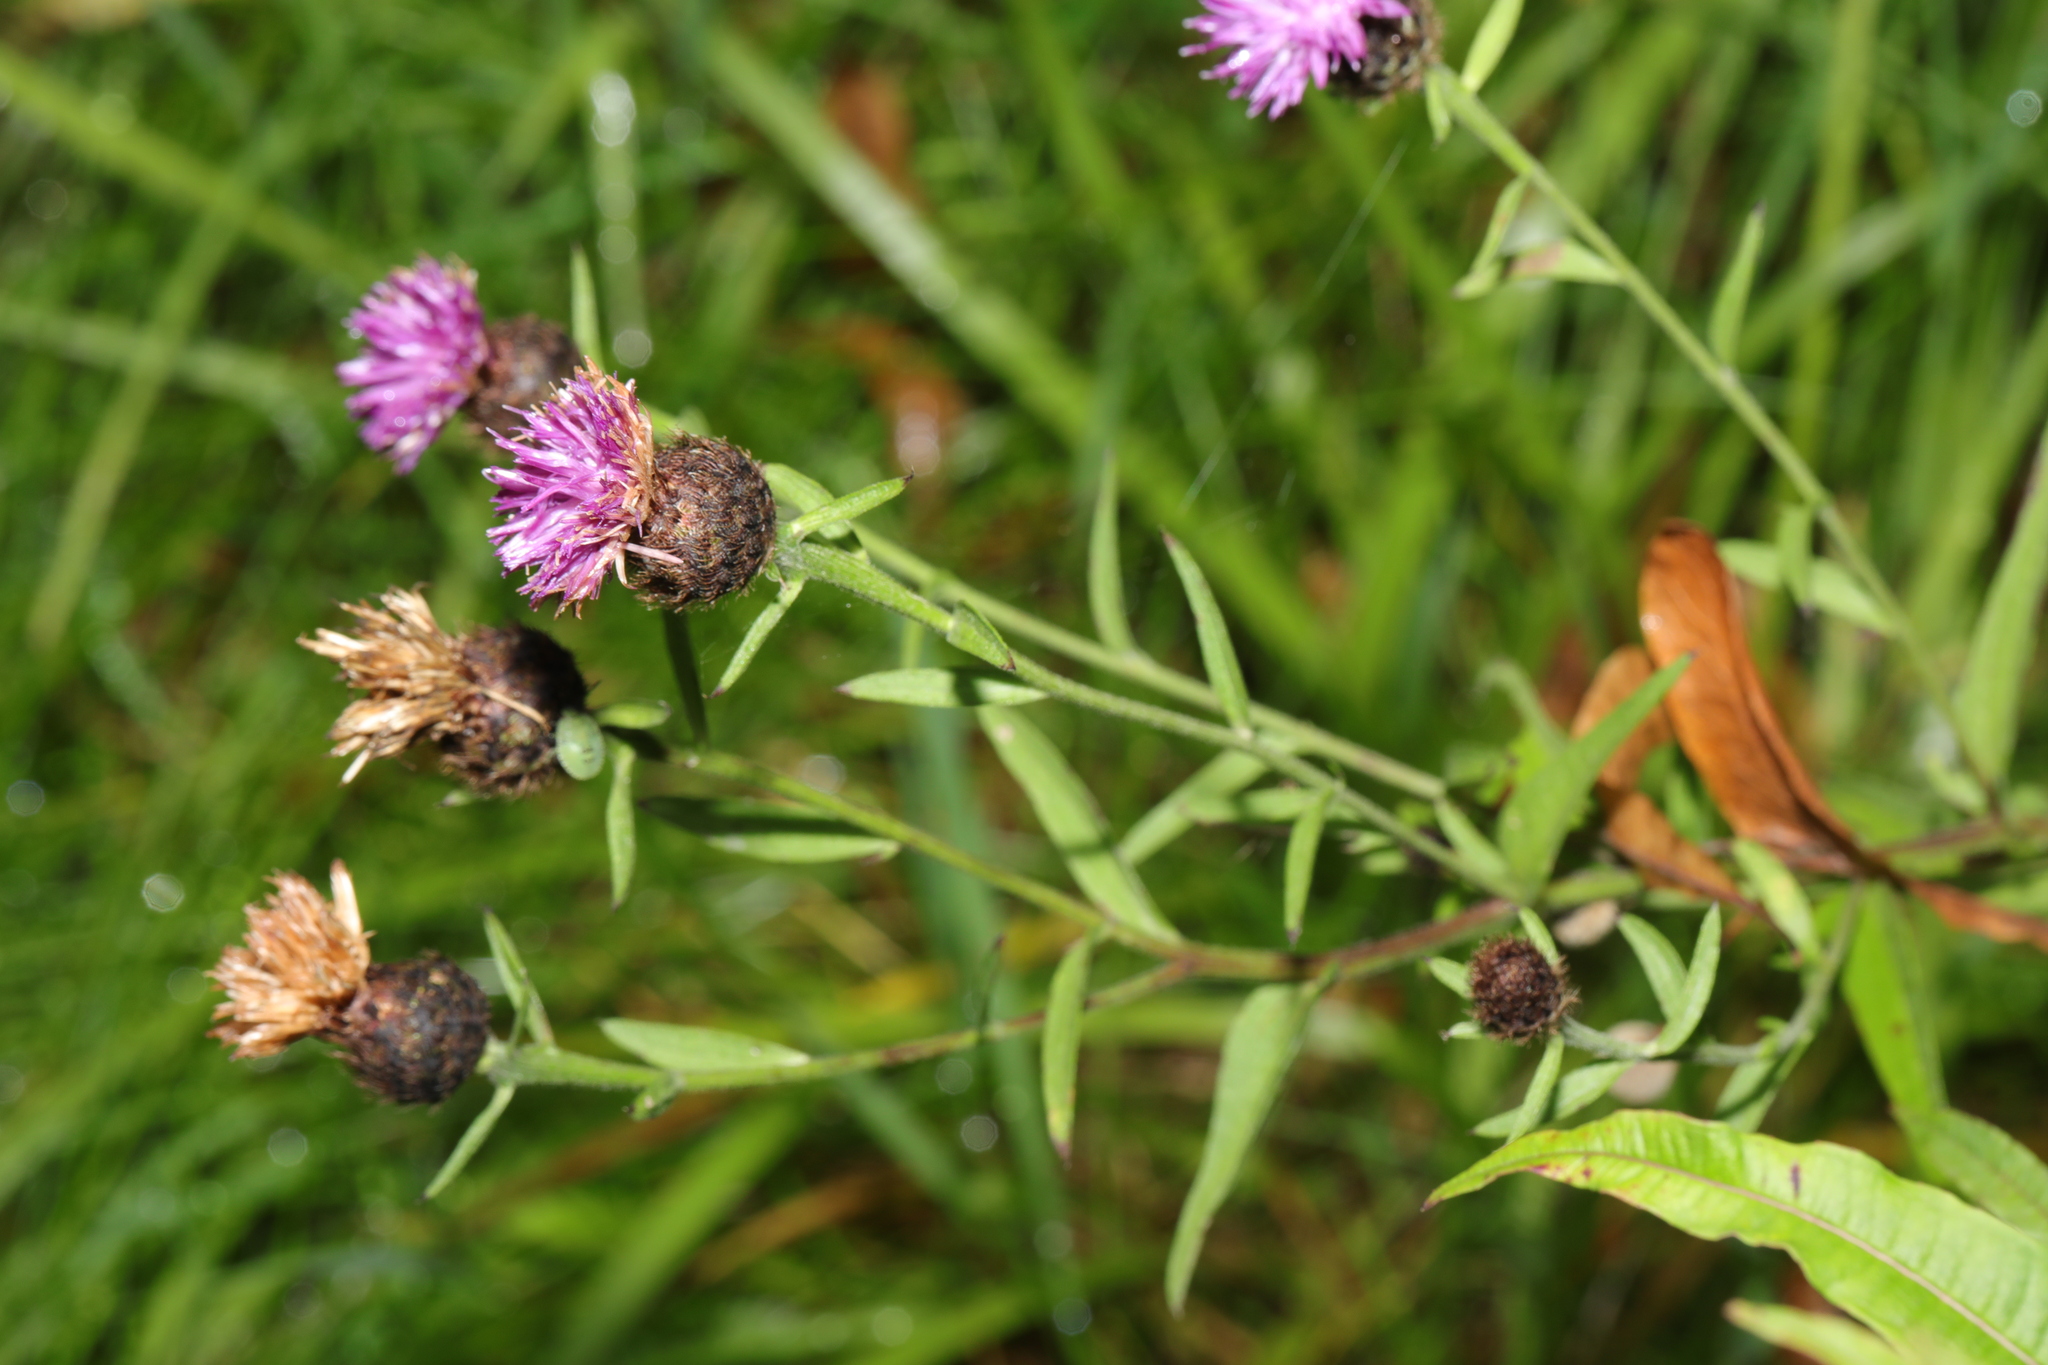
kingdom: Plantae
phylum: Tracheophyta
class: Magnoliopsida
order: Asterales
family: Asteraceae
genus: Centaurea
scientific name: Centaurea nigra
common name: Lesser knapweed
